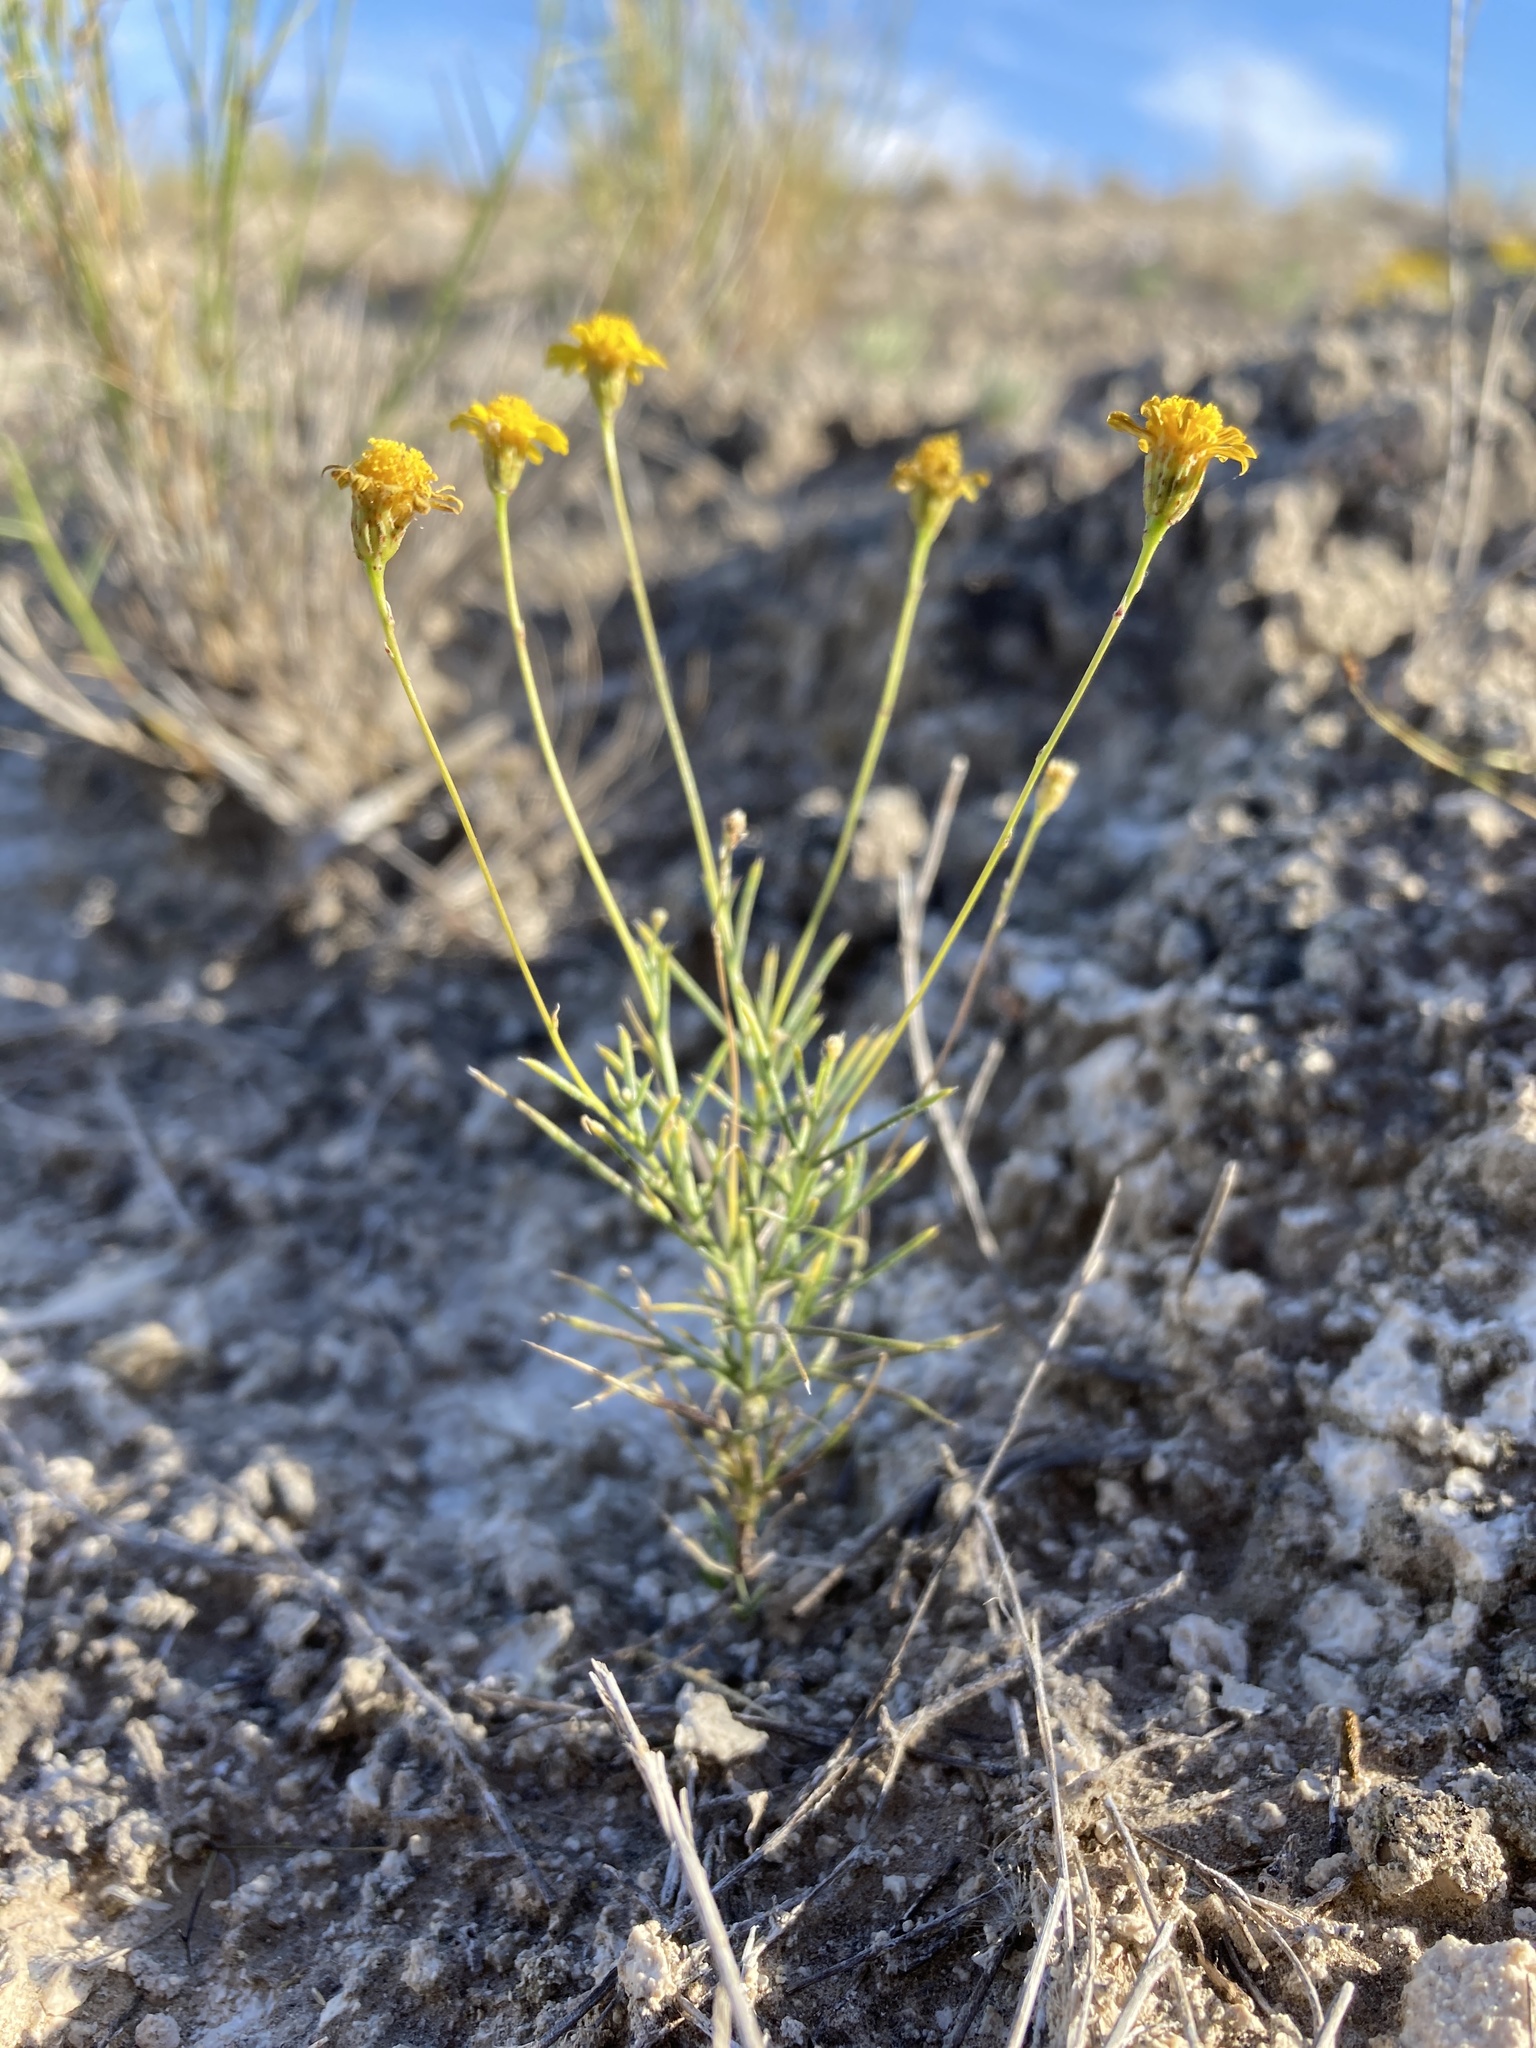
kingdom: Plantae
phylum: Tracheophyta
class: Magnoliopsida
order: Asterales
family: Asteraceae
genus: Thymophylla
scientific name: Thymophylla pentachaeta
